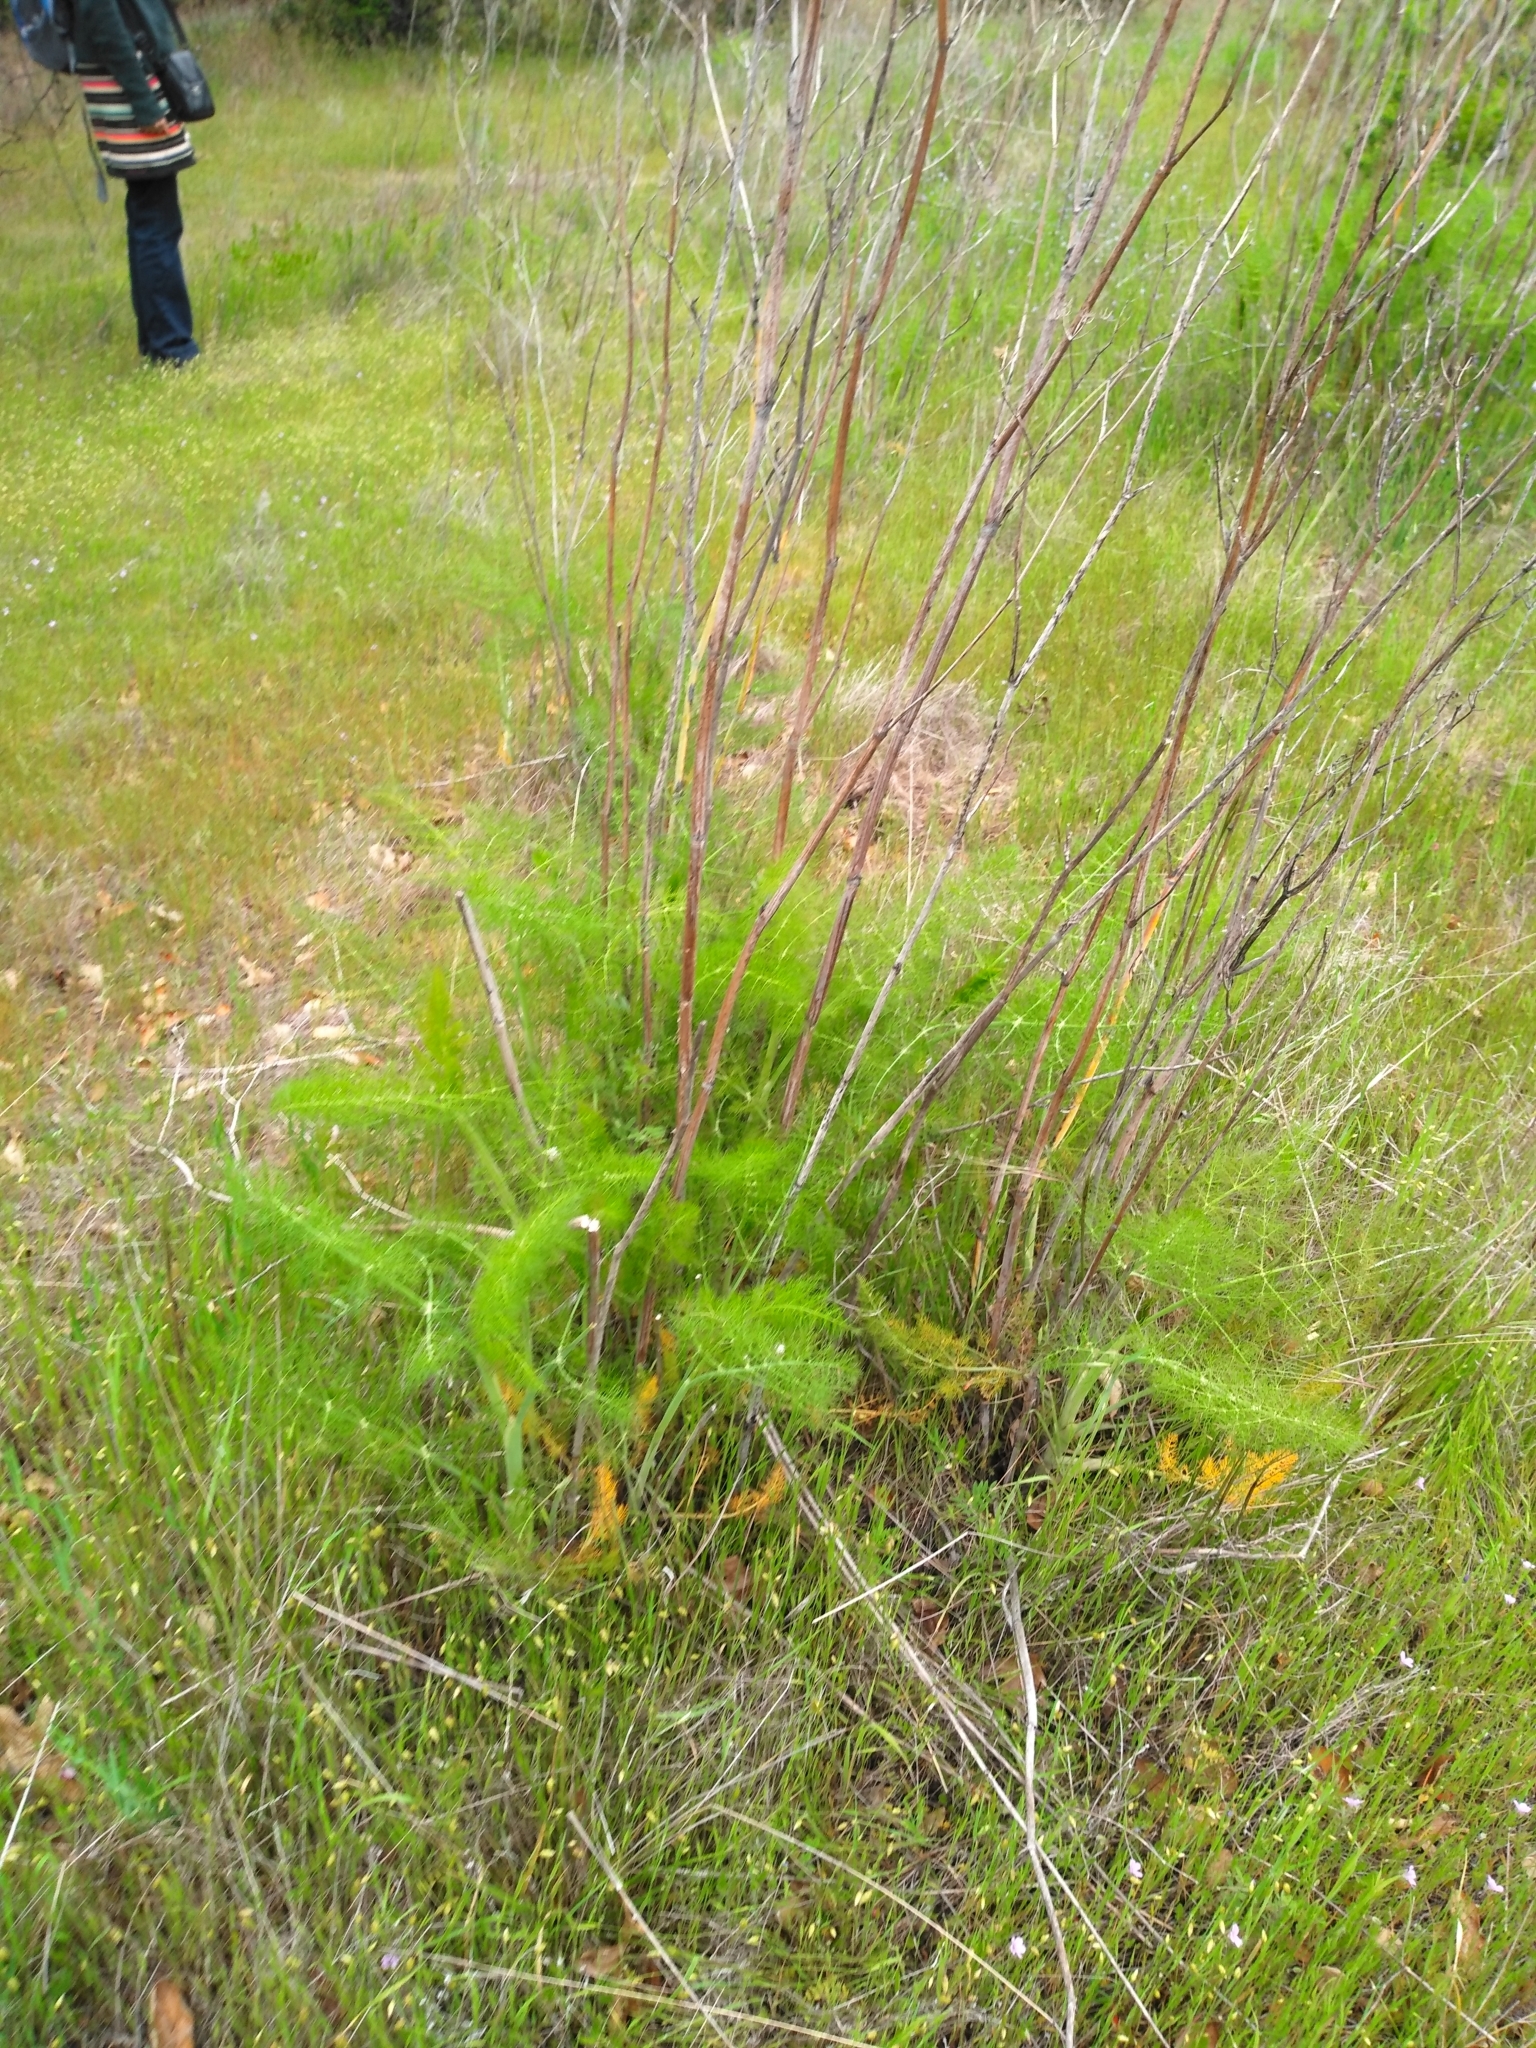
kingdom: Plantae
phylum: Tracheophyta
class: Magnoliopsida
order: Apiales
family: Apiaceae
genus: Foeniculum
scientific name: Foeniculum vulgare
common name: Fennel
